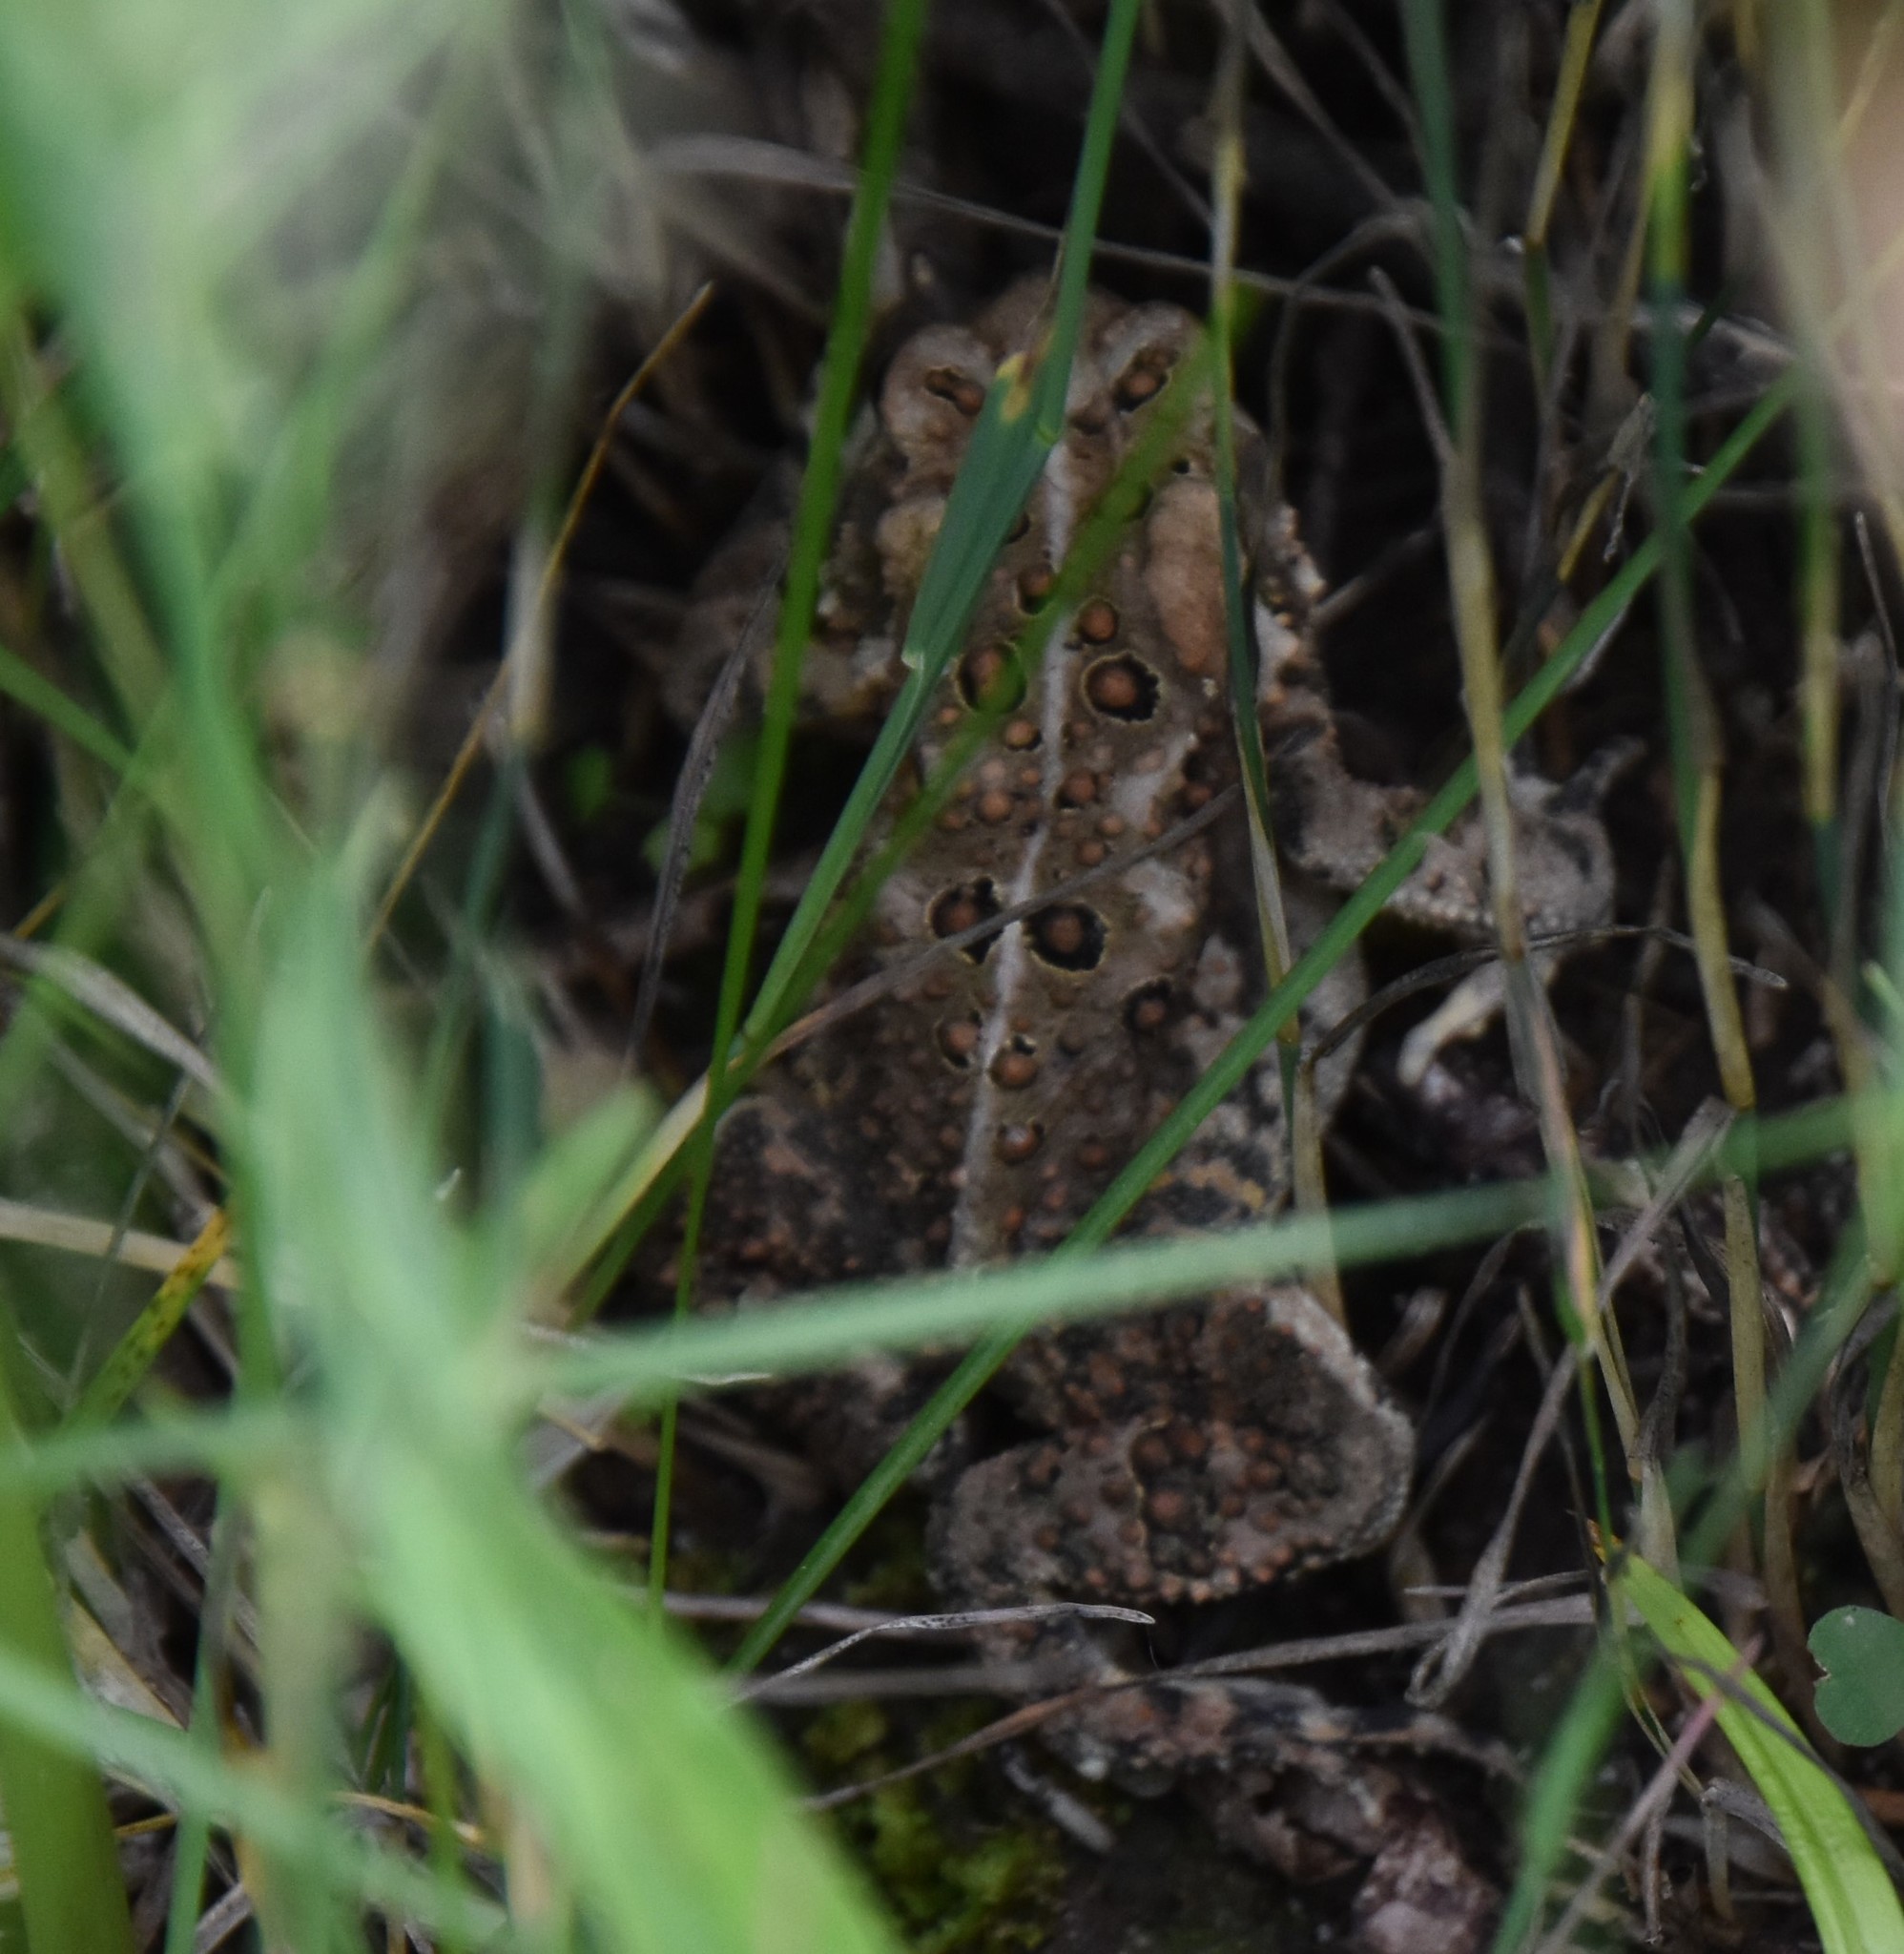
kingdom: Animalia
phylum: Chordata
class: Amphibia
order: Anura
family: Bufonidae
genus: Anaxyrus
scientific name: Anaxyrus americanus
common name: American toad
